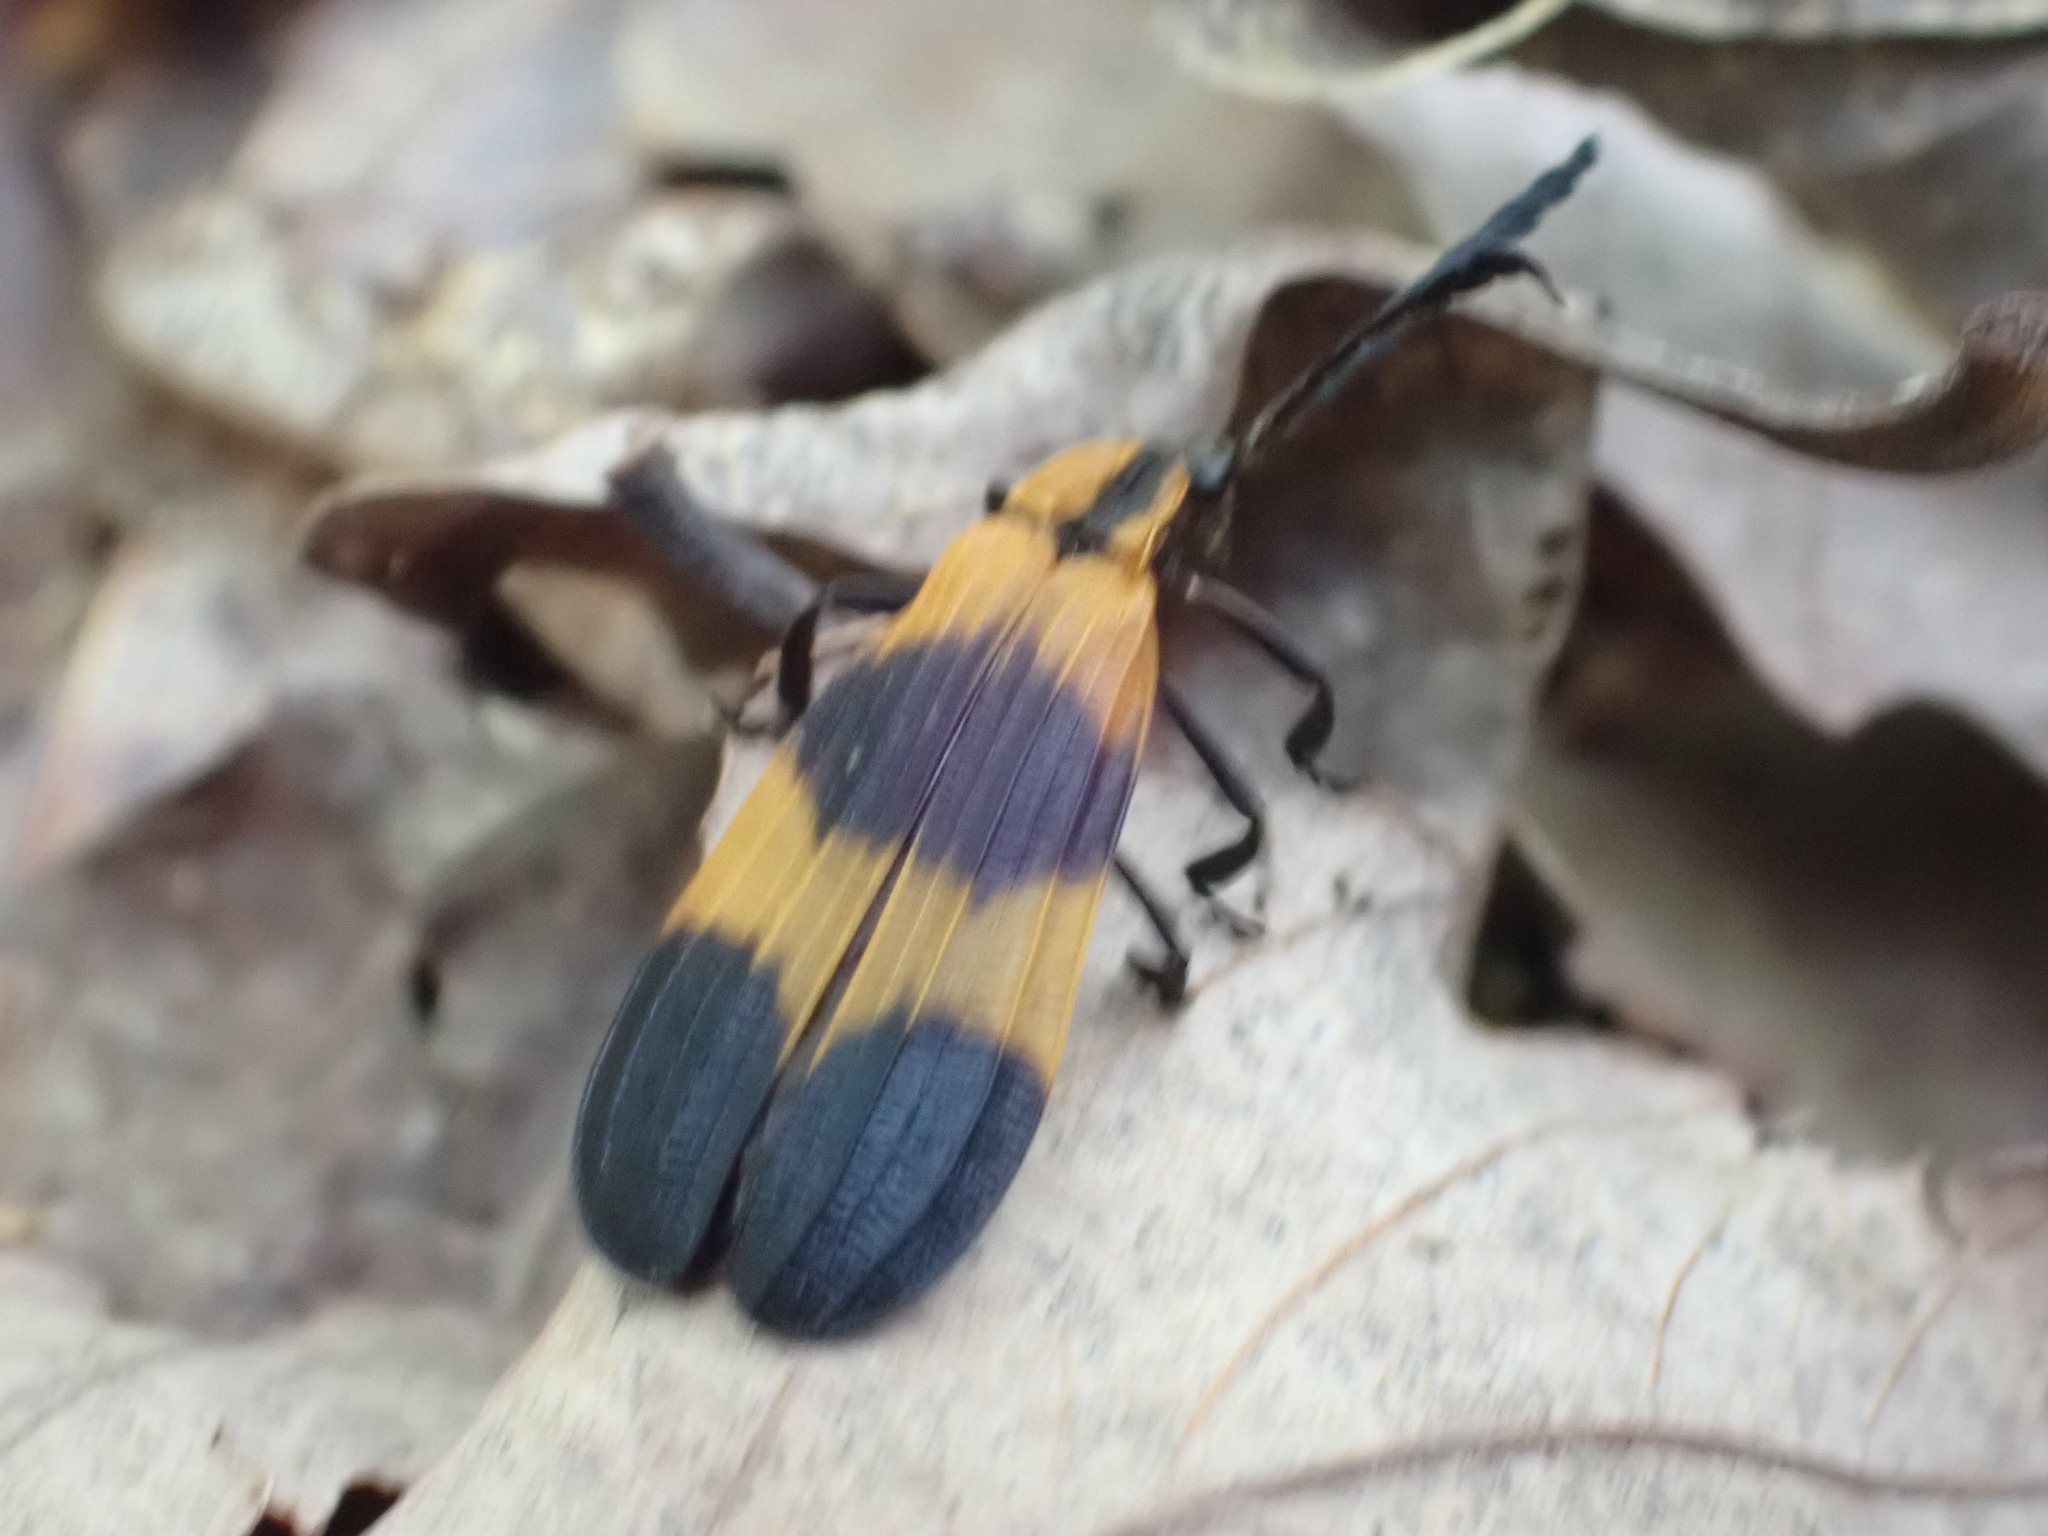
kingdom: Animalia
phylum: Arthropoda
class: Insecta
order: Coleoptera
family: Lycidae
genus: Calopteron
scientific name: Calopteron reticulatum
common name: Banded net-winged beetle
